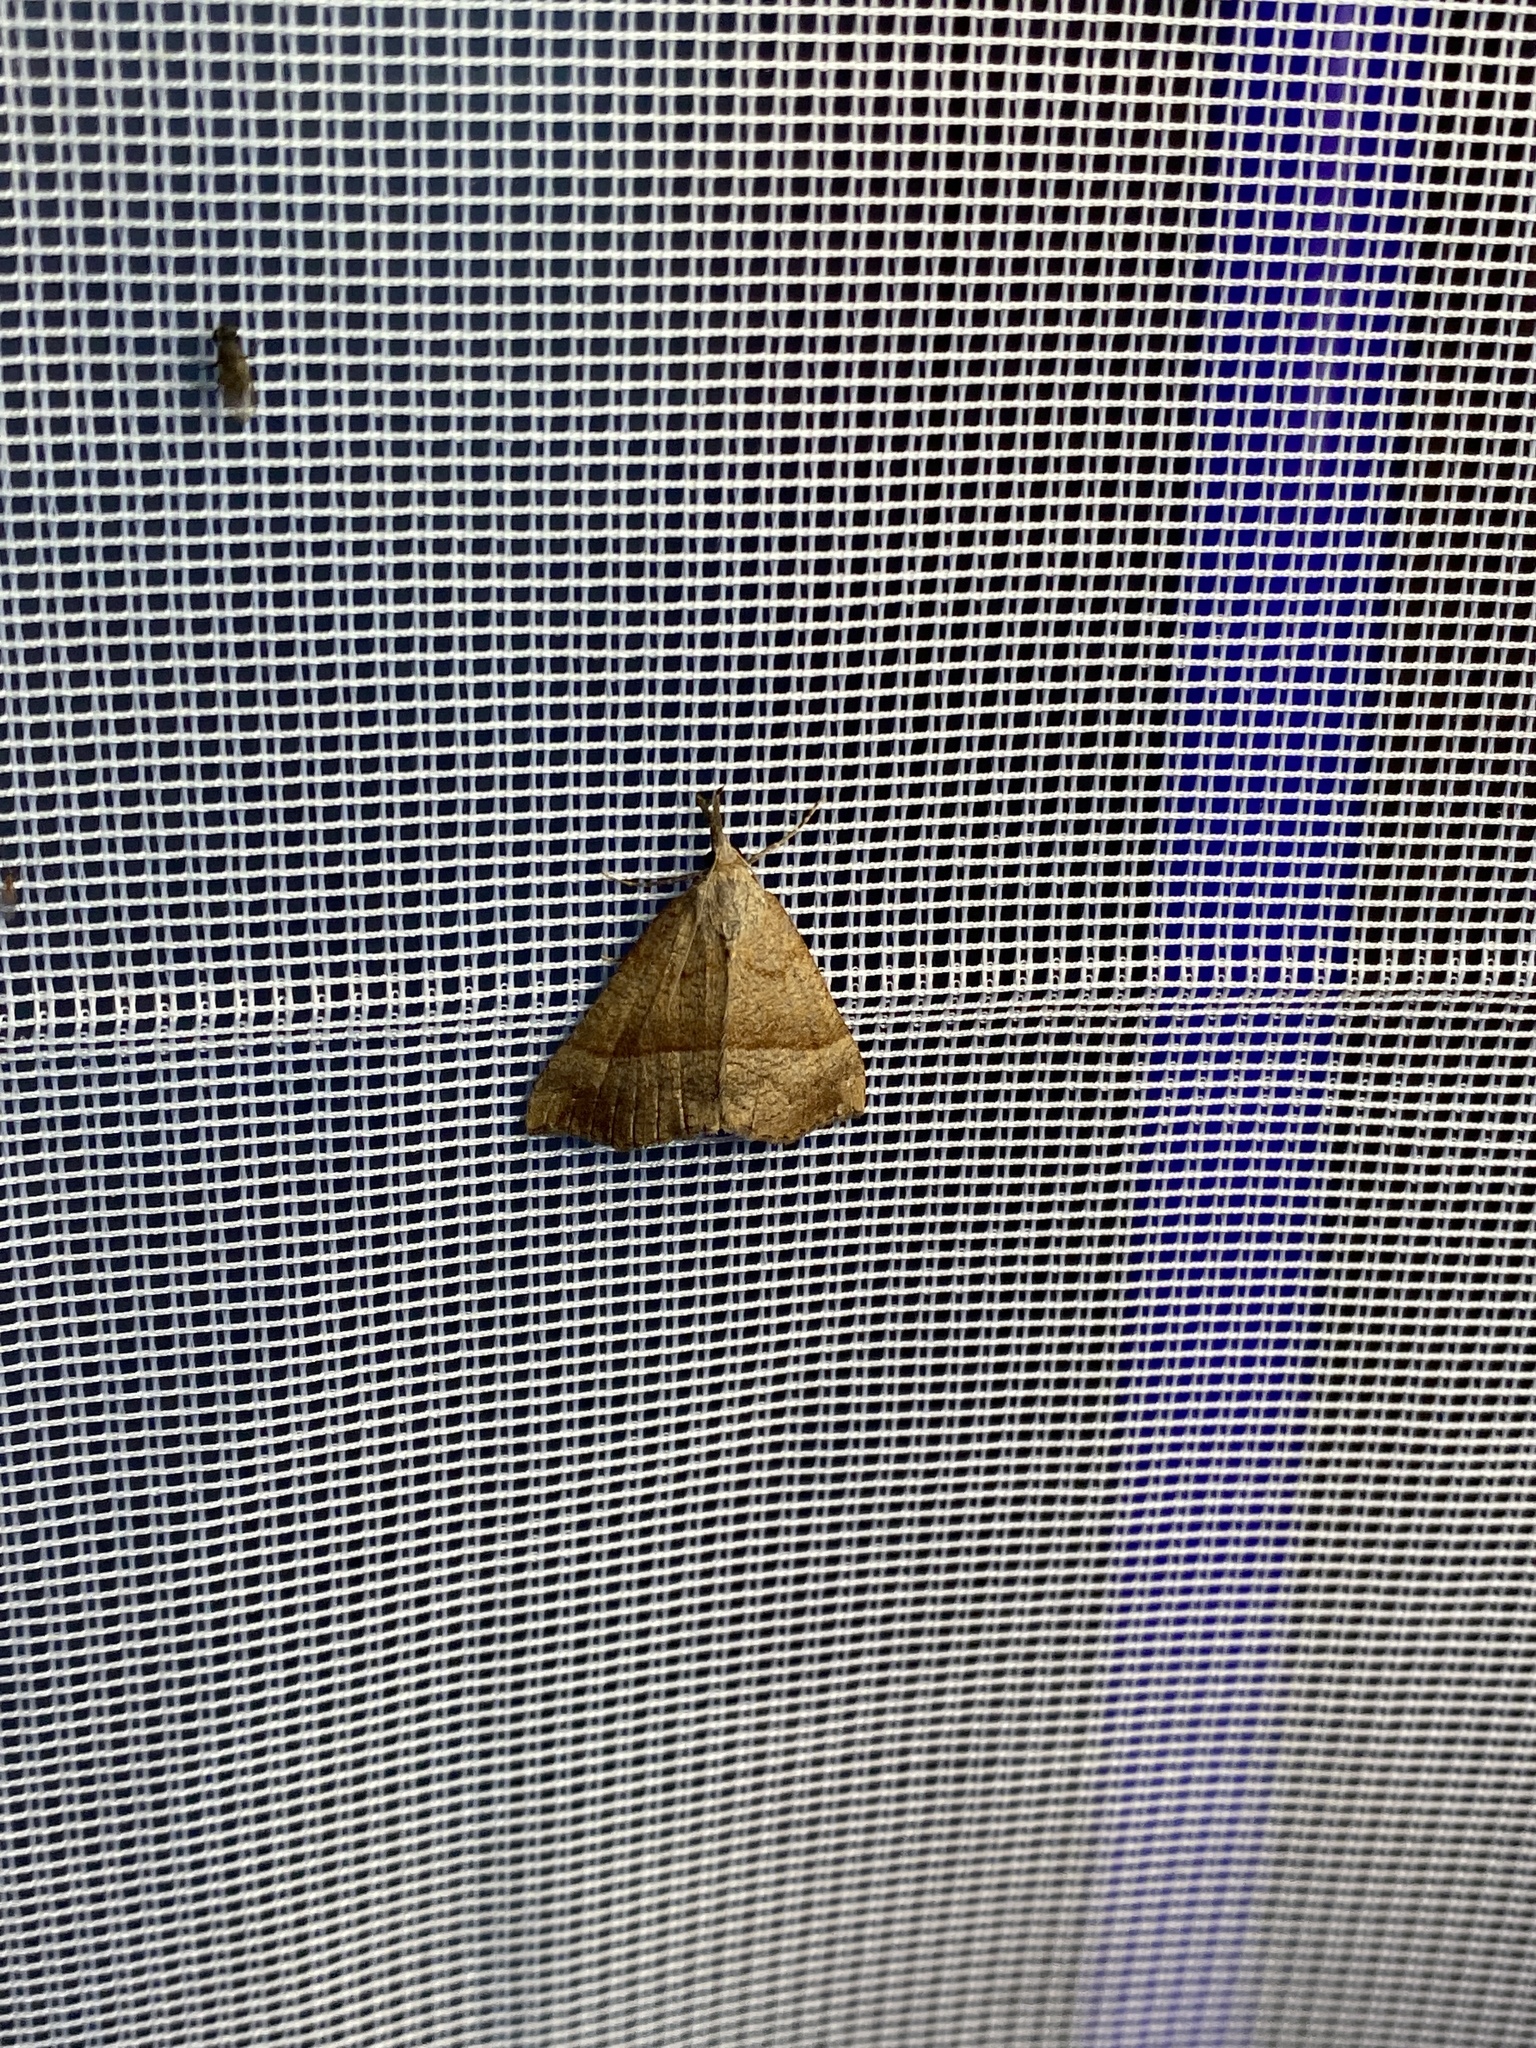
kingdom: Animalia
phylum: Arthropoda
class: Insecta
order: Lepidoptera
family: Erebidae
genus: Hypena
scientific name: Hypena proboscidalis
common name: Snout
